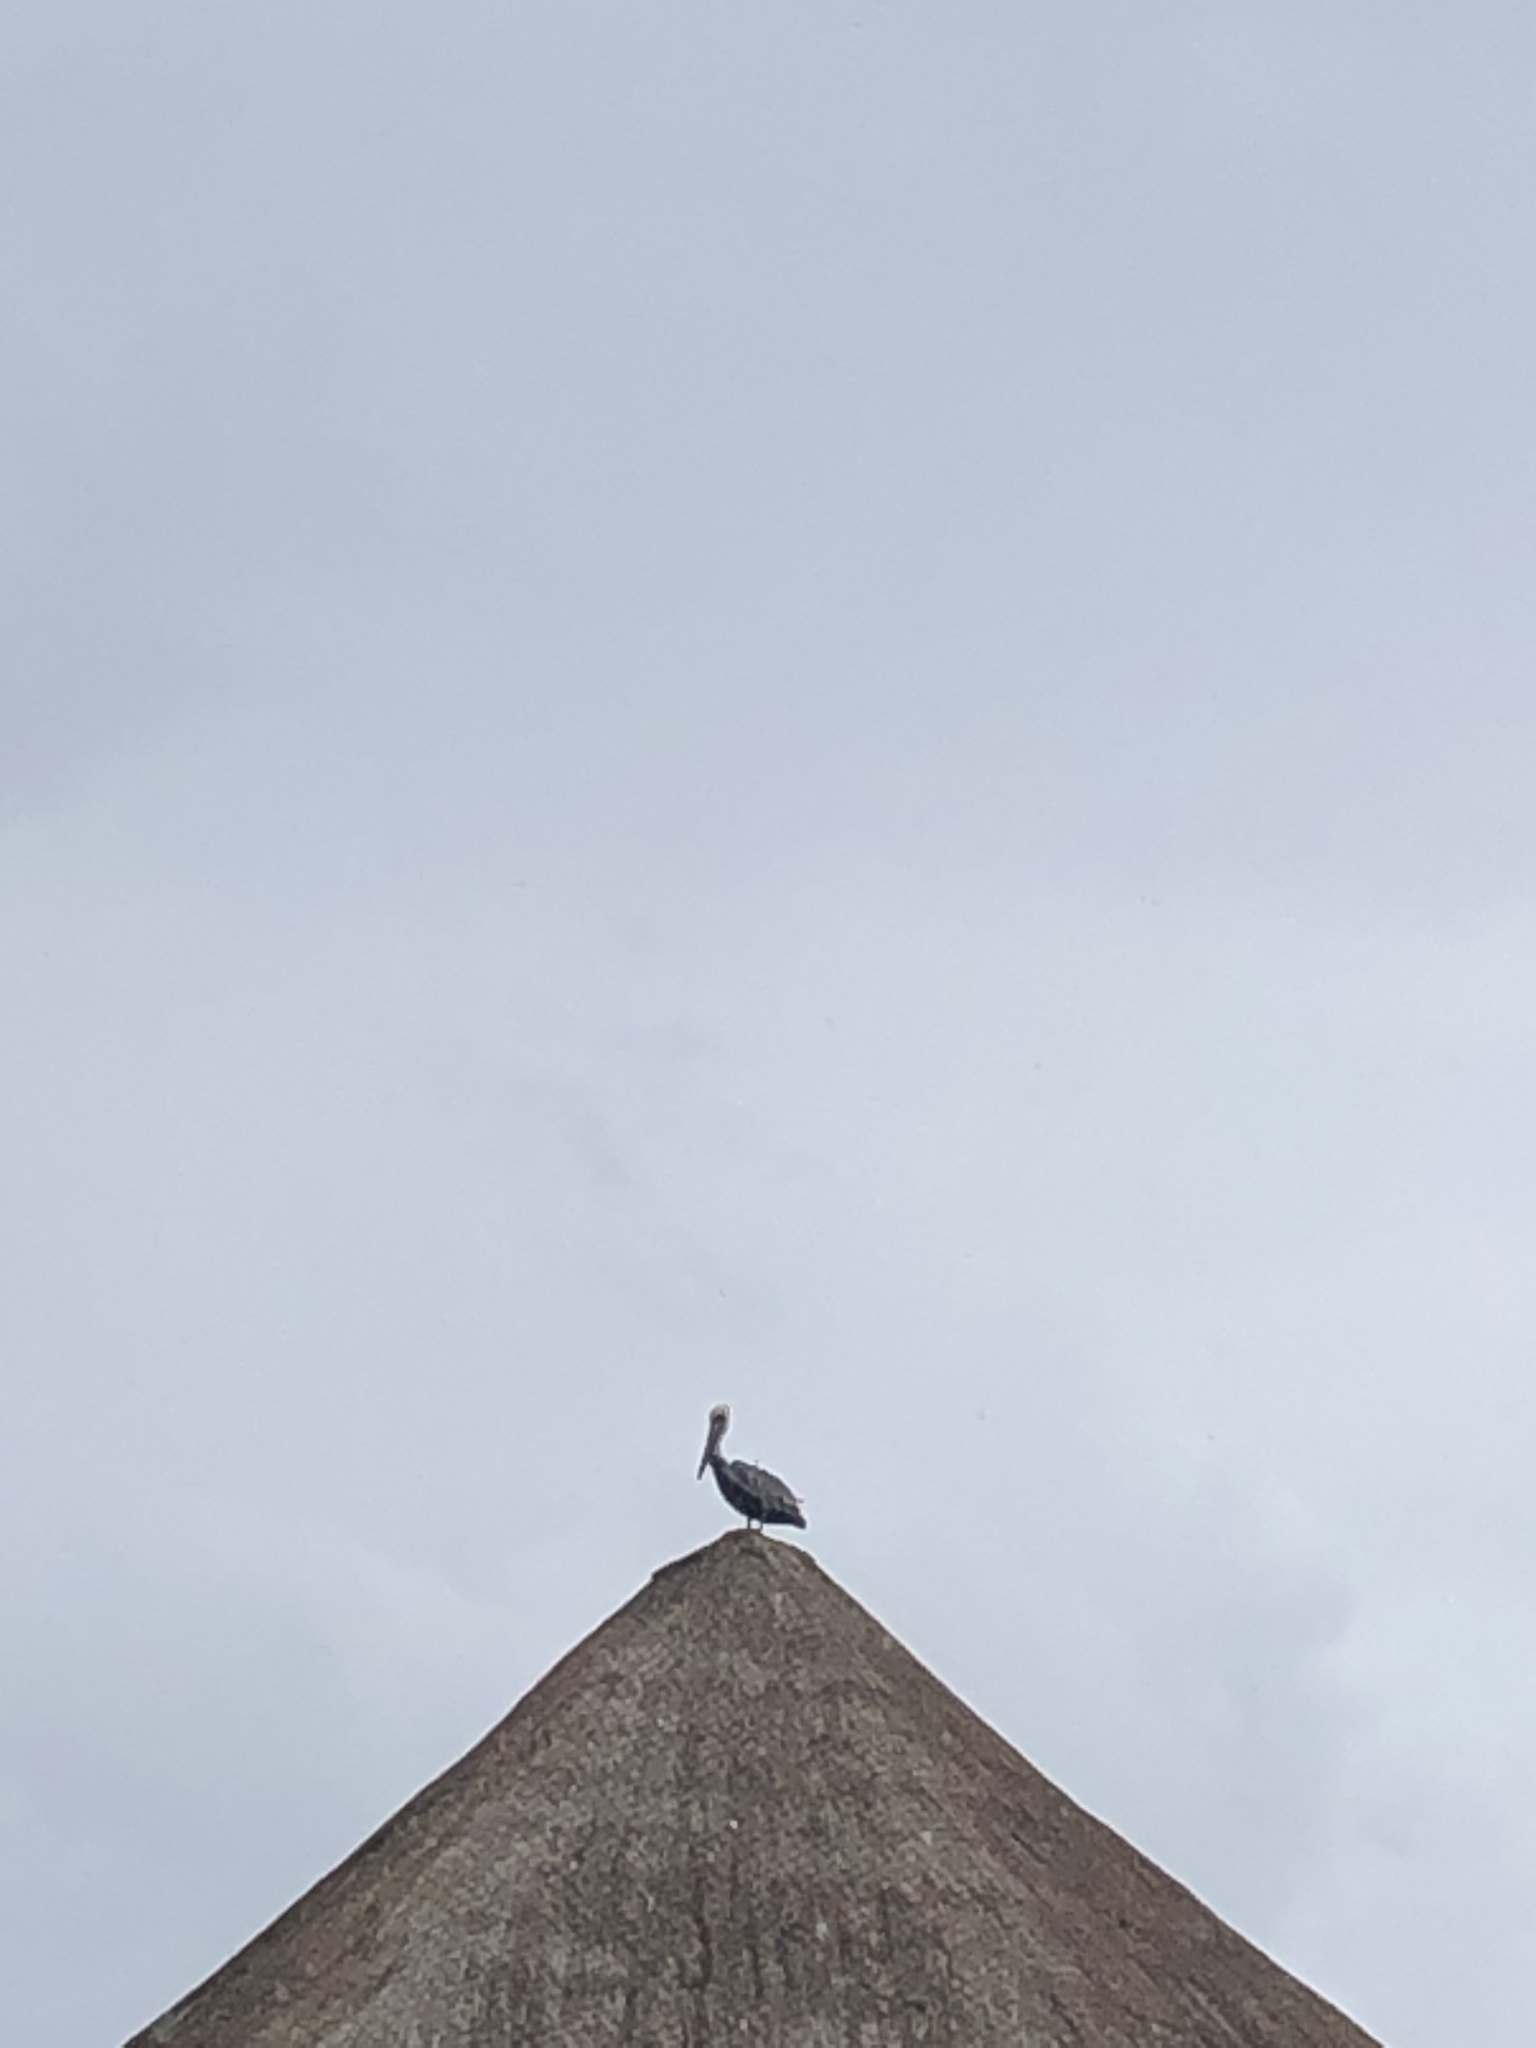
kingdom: Animalia
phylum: Chordata
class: Aves
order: Pelecaniformes
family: Pelecanidae
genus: Pelecanus
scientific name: Pelecanus occidentalis
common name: Brown pelican
